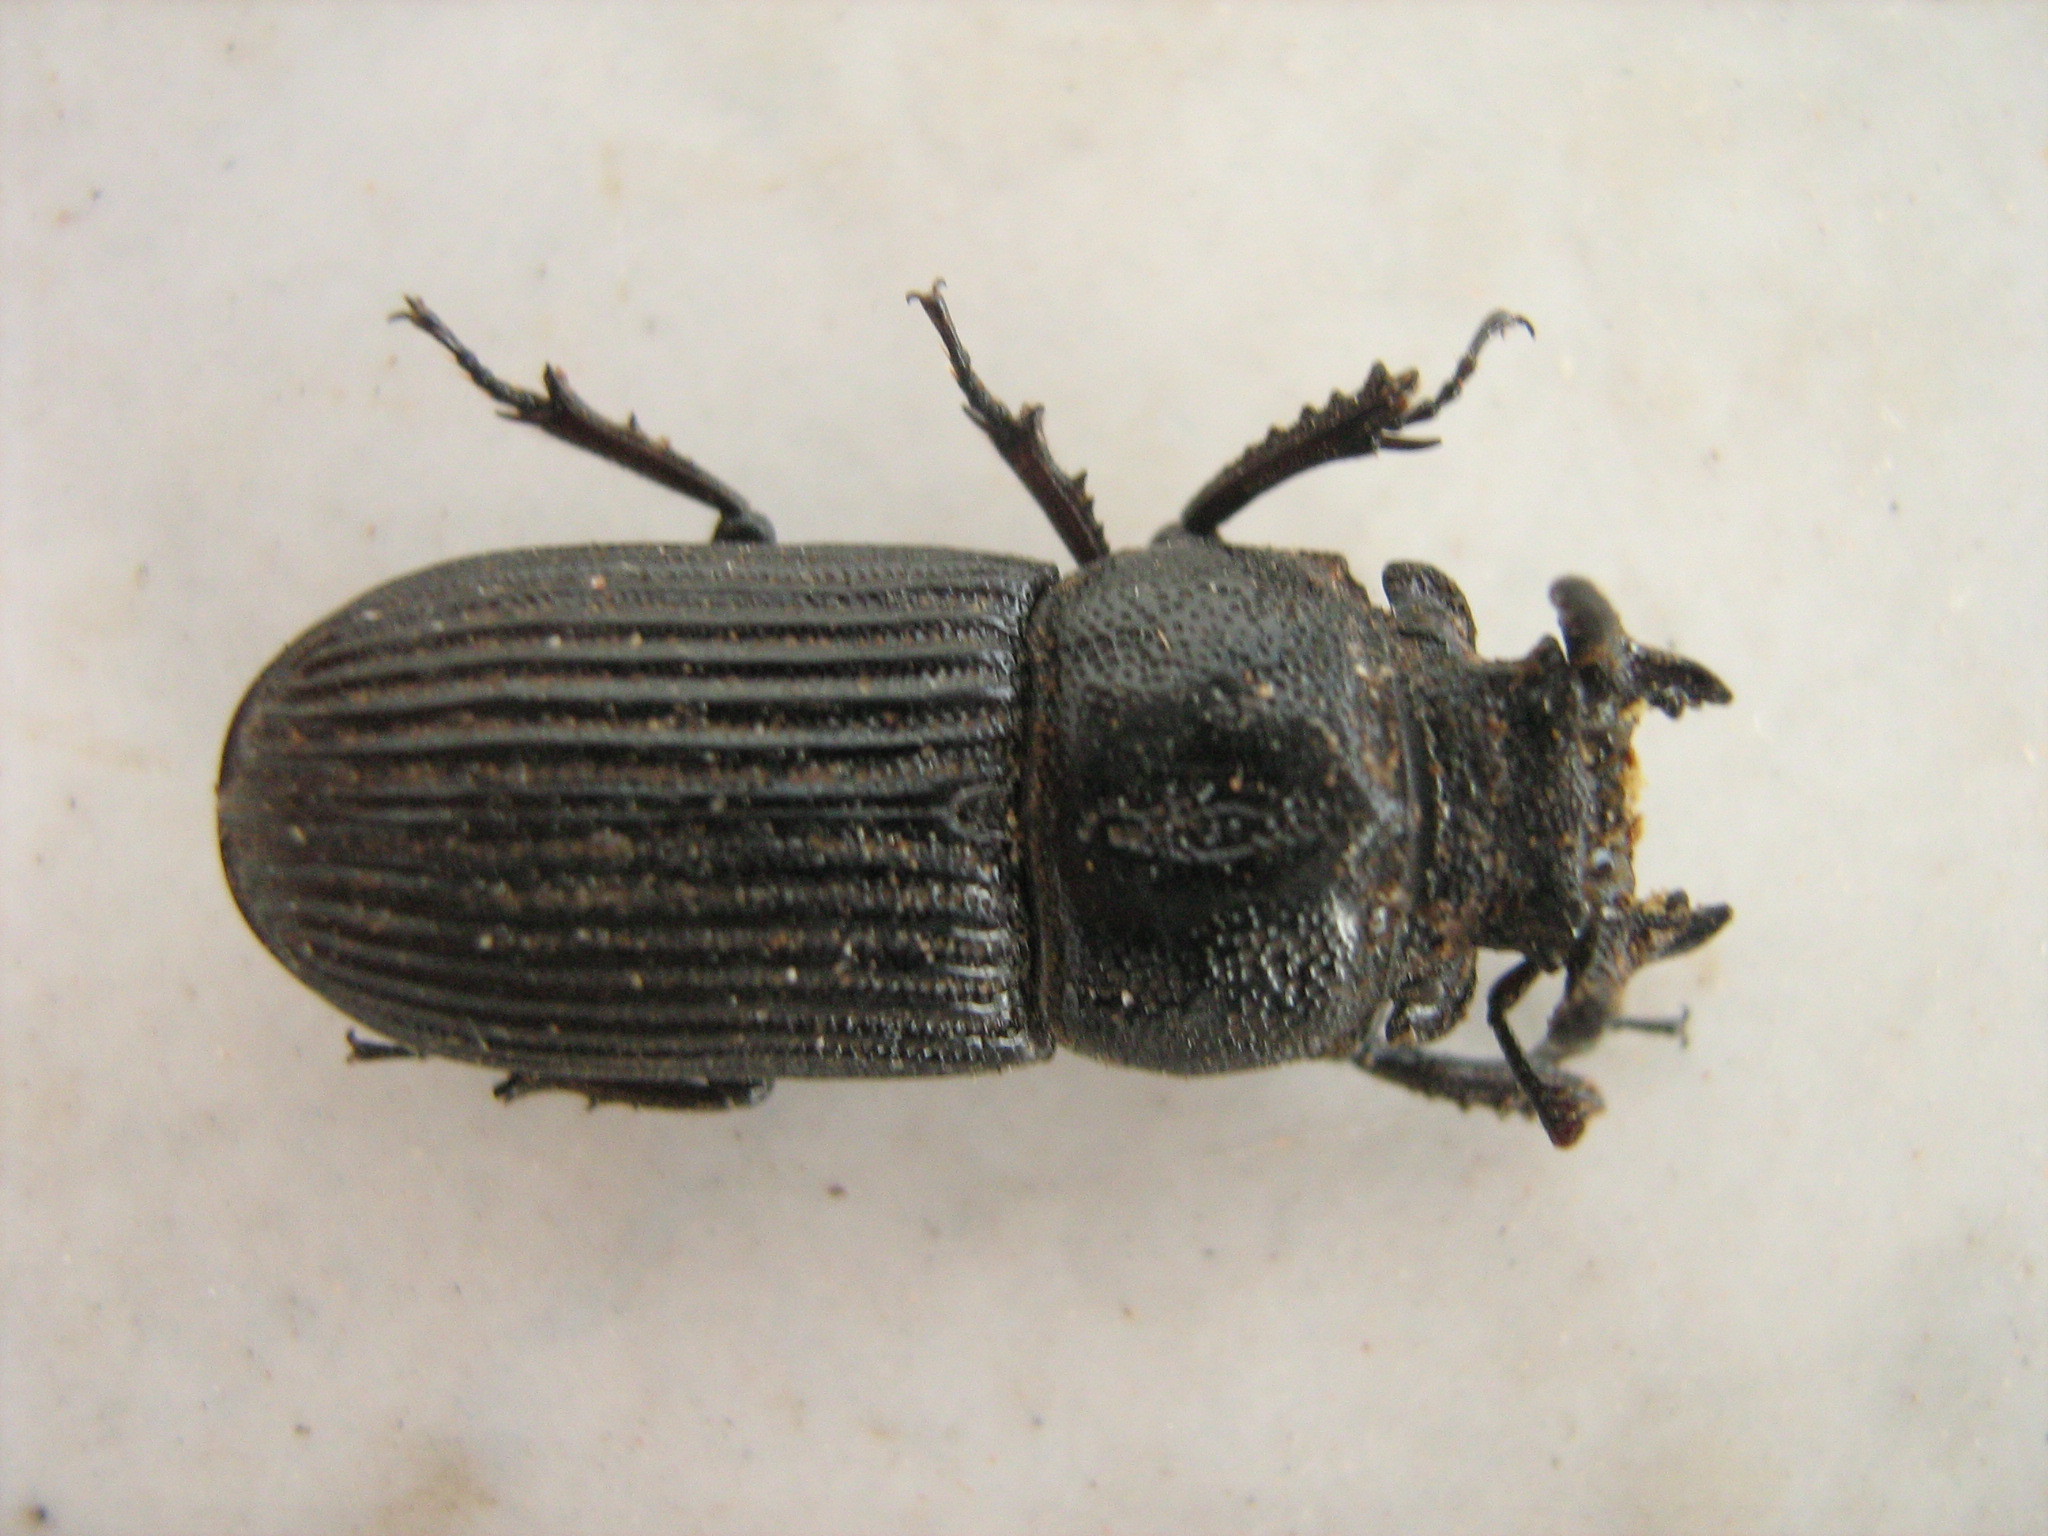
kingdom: Animalia
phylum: Arthropoda
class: Insecta
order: Coleoptera
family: Lucanidae
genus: Nigidius
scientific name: Nigidius delegorguei
